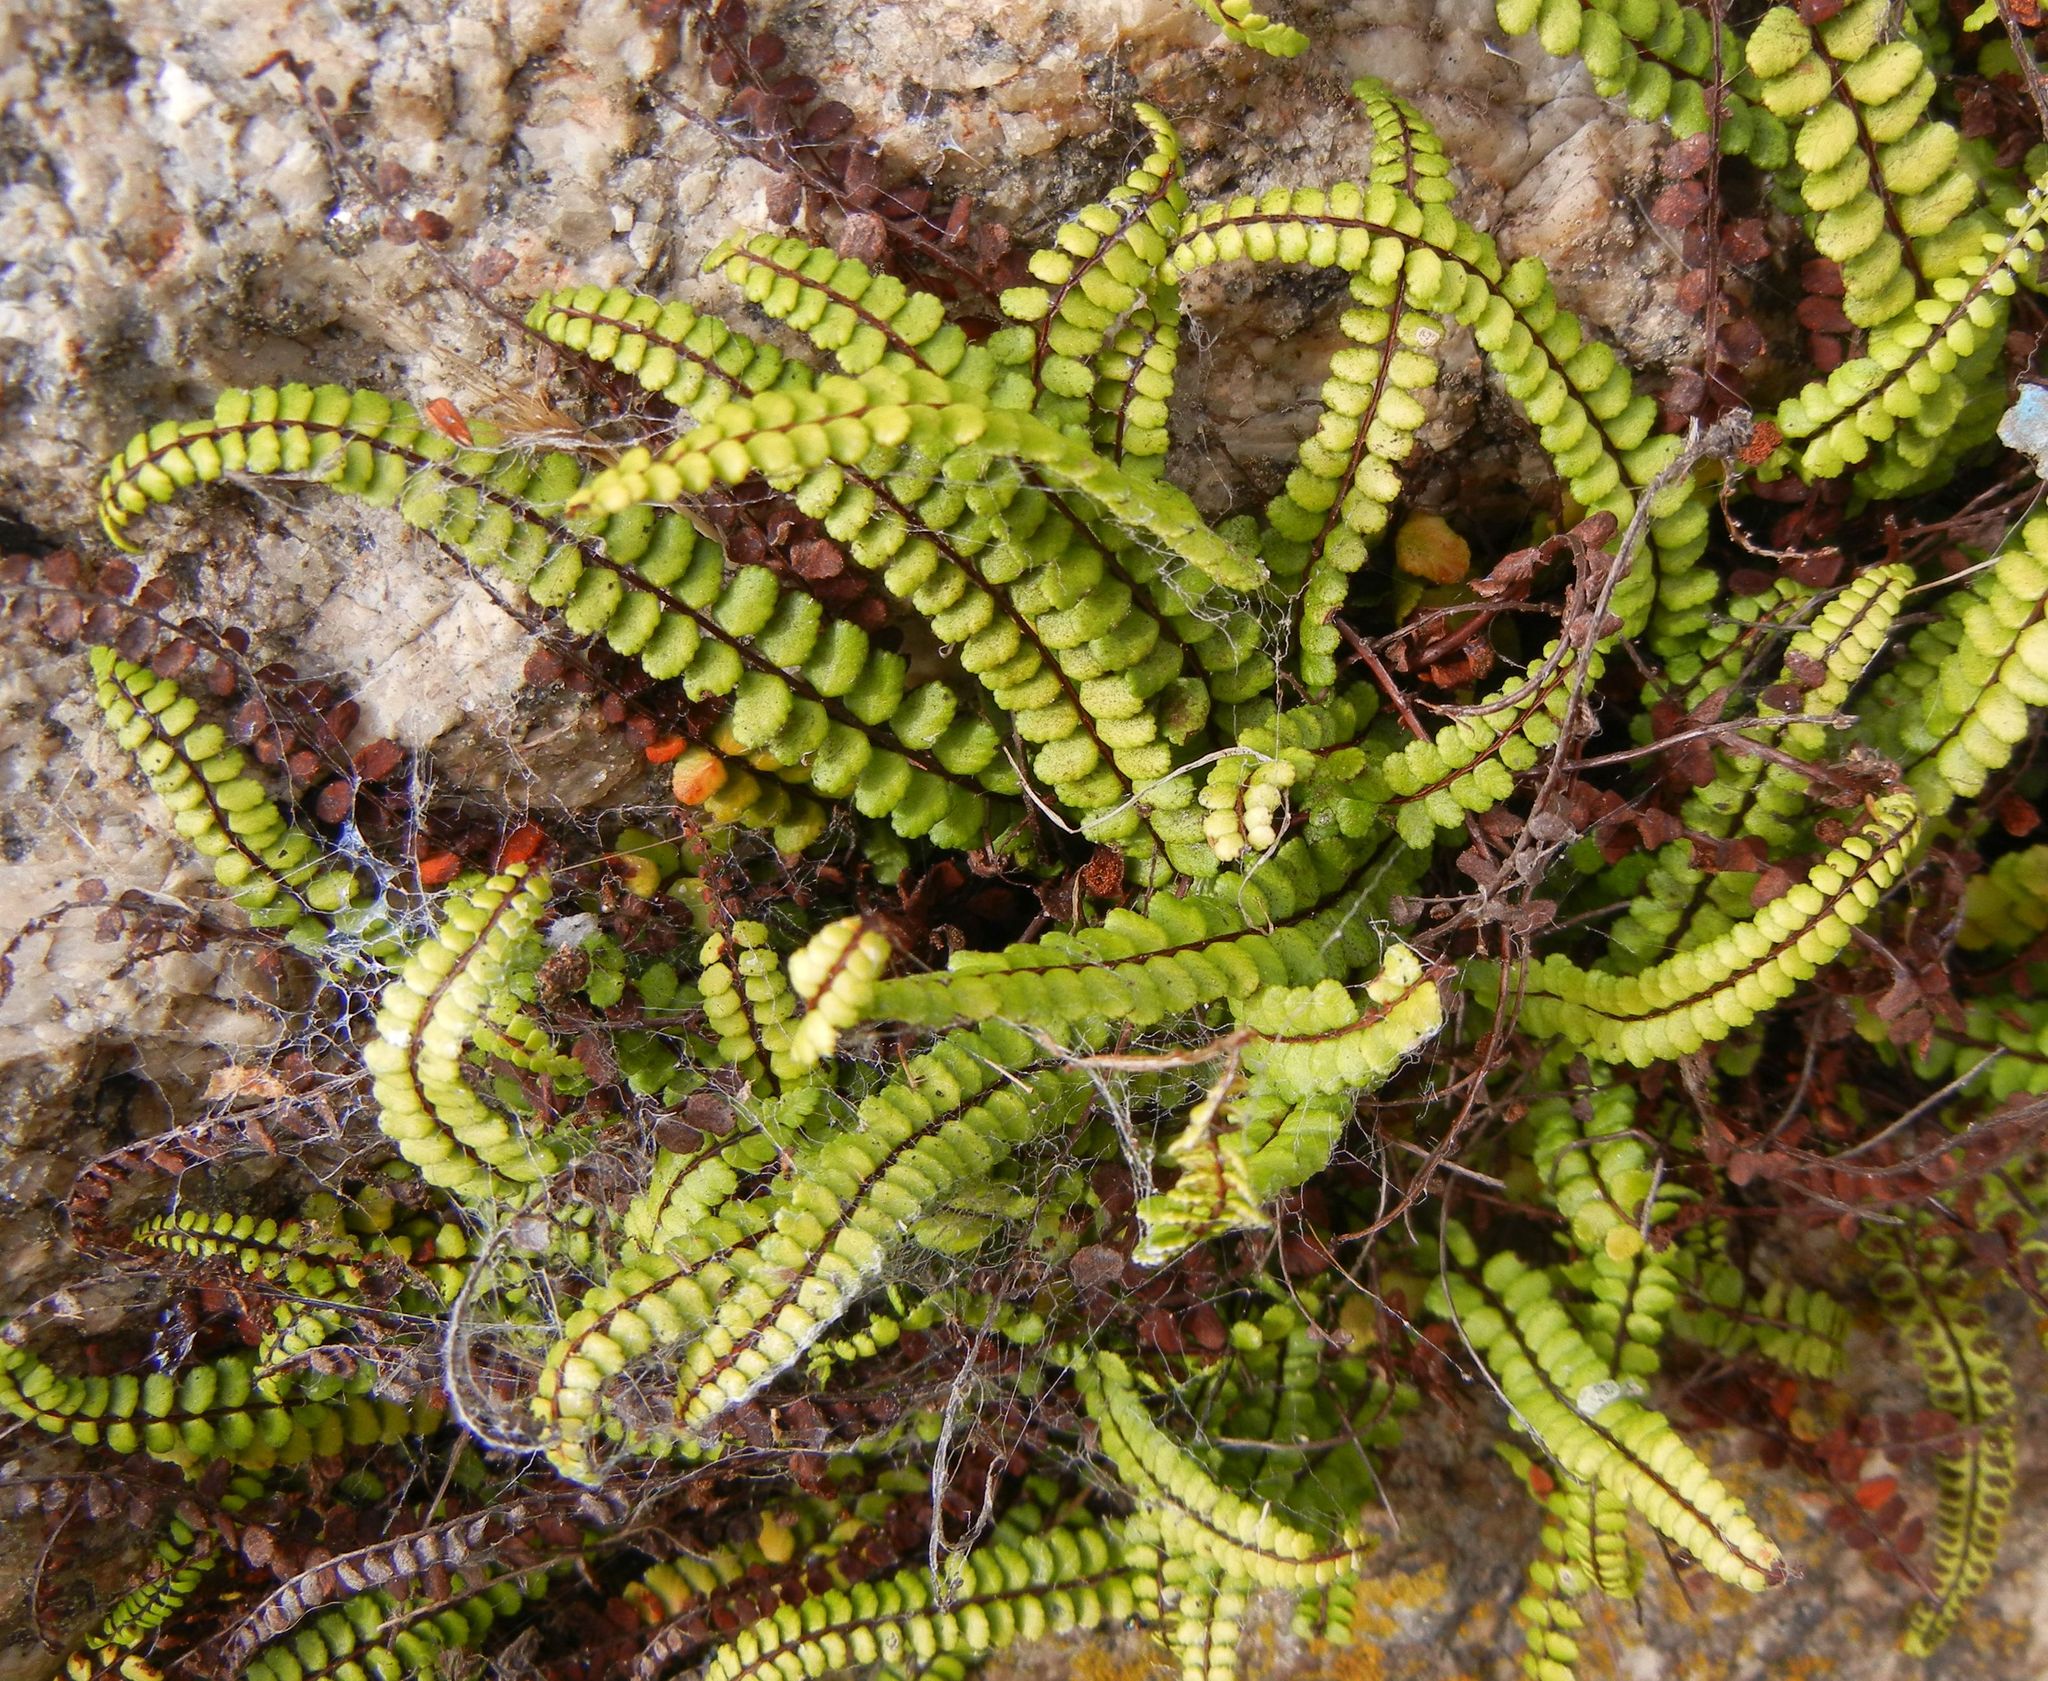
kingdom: Plantae
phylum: Tracheophyta
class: Polypodiopsida
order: Polypodiales
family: Aspleniaceae
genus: Asplenium
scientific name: Asplenium trichomanes
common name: Maidenhair spleenwort
